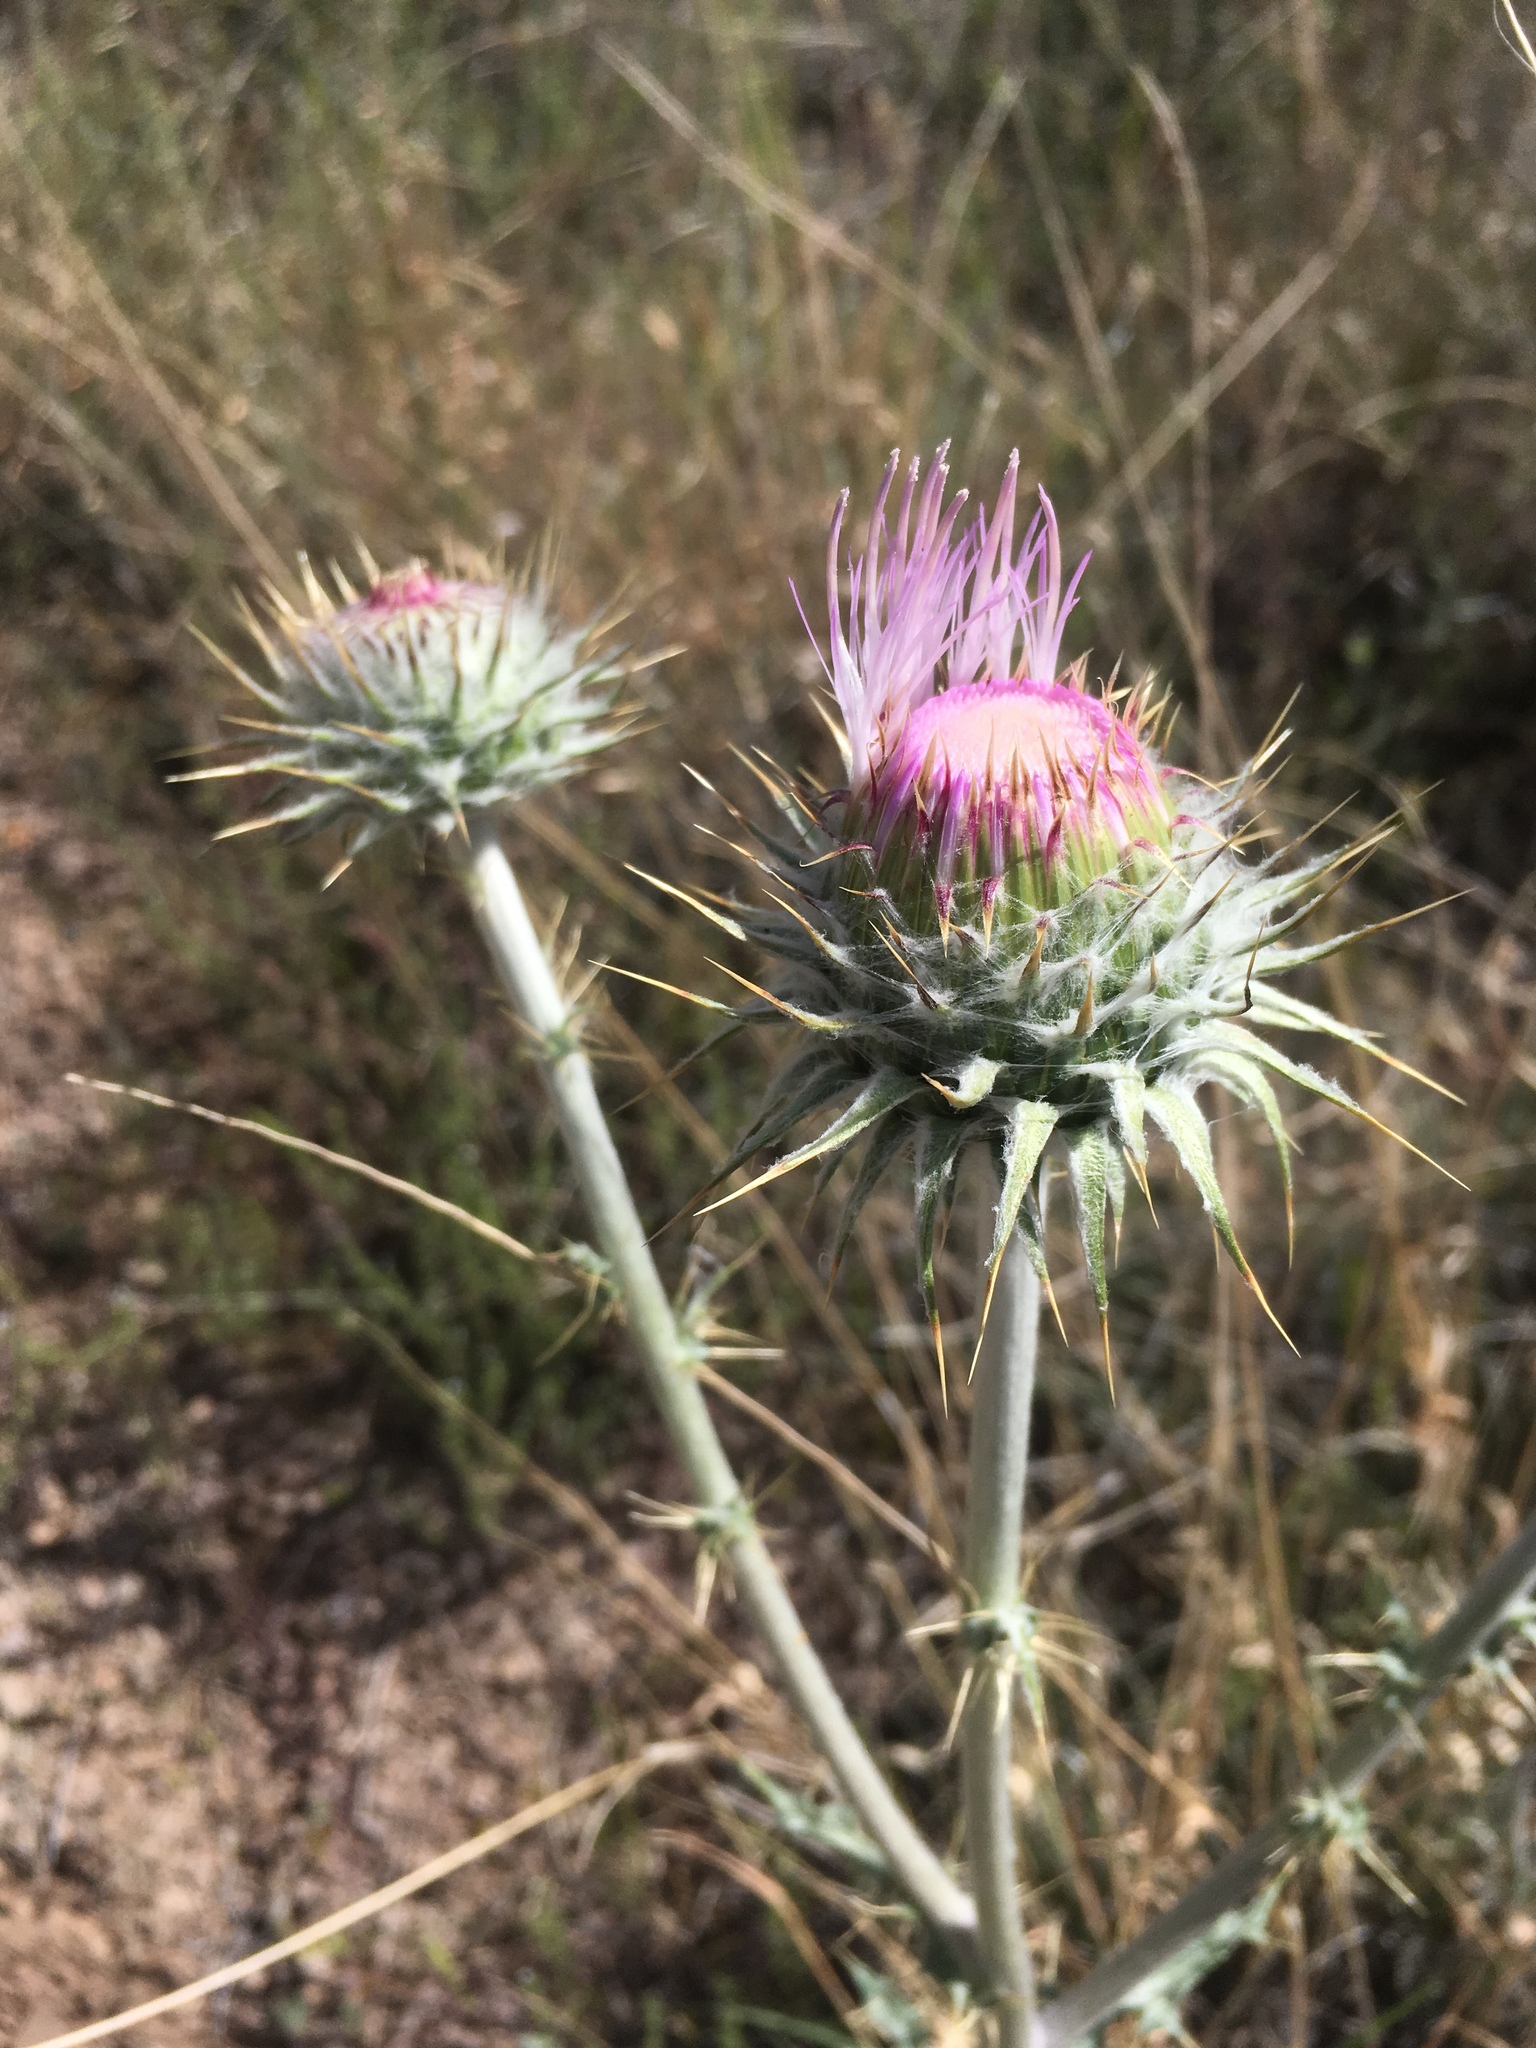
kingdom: Plantae
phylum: Tracheophyta
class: Magnoliopsida
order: Asterales
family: Asteraceae
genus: Cirsium
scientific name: Cirsium neomexicanum
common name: New mexico thistle
